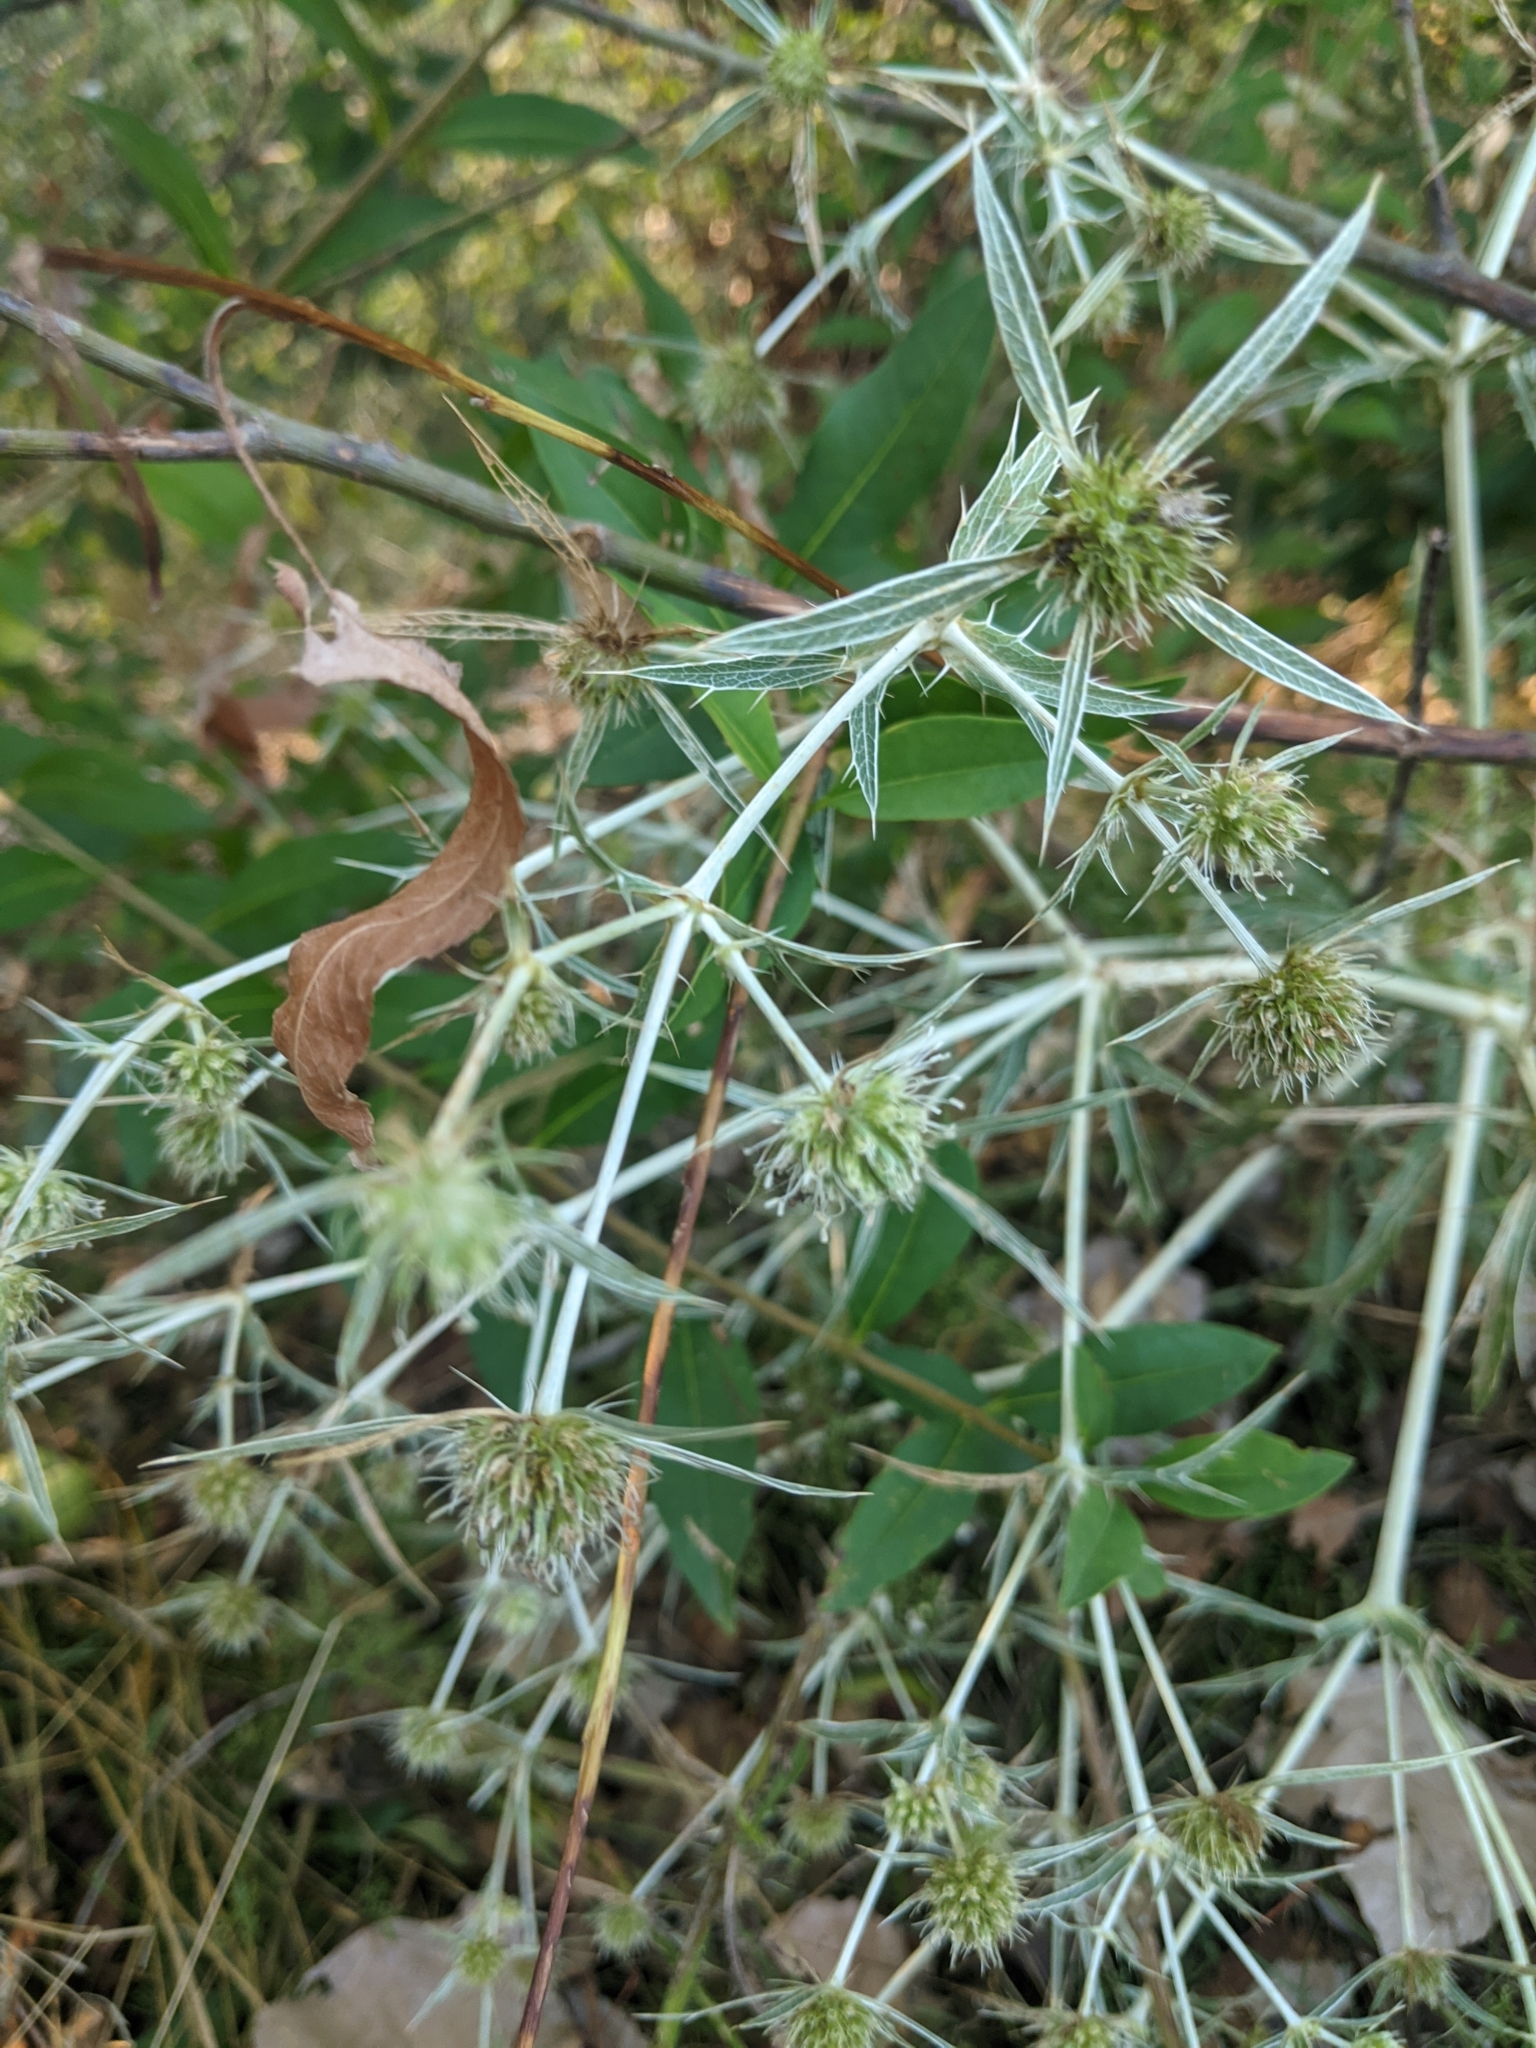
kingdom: Plantae
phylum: Tracheophyta
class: Magnoliopsida
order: Apiales
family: Apiaceae
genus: Eryngium
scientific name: Eryngium campestre
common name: Field eryngo
